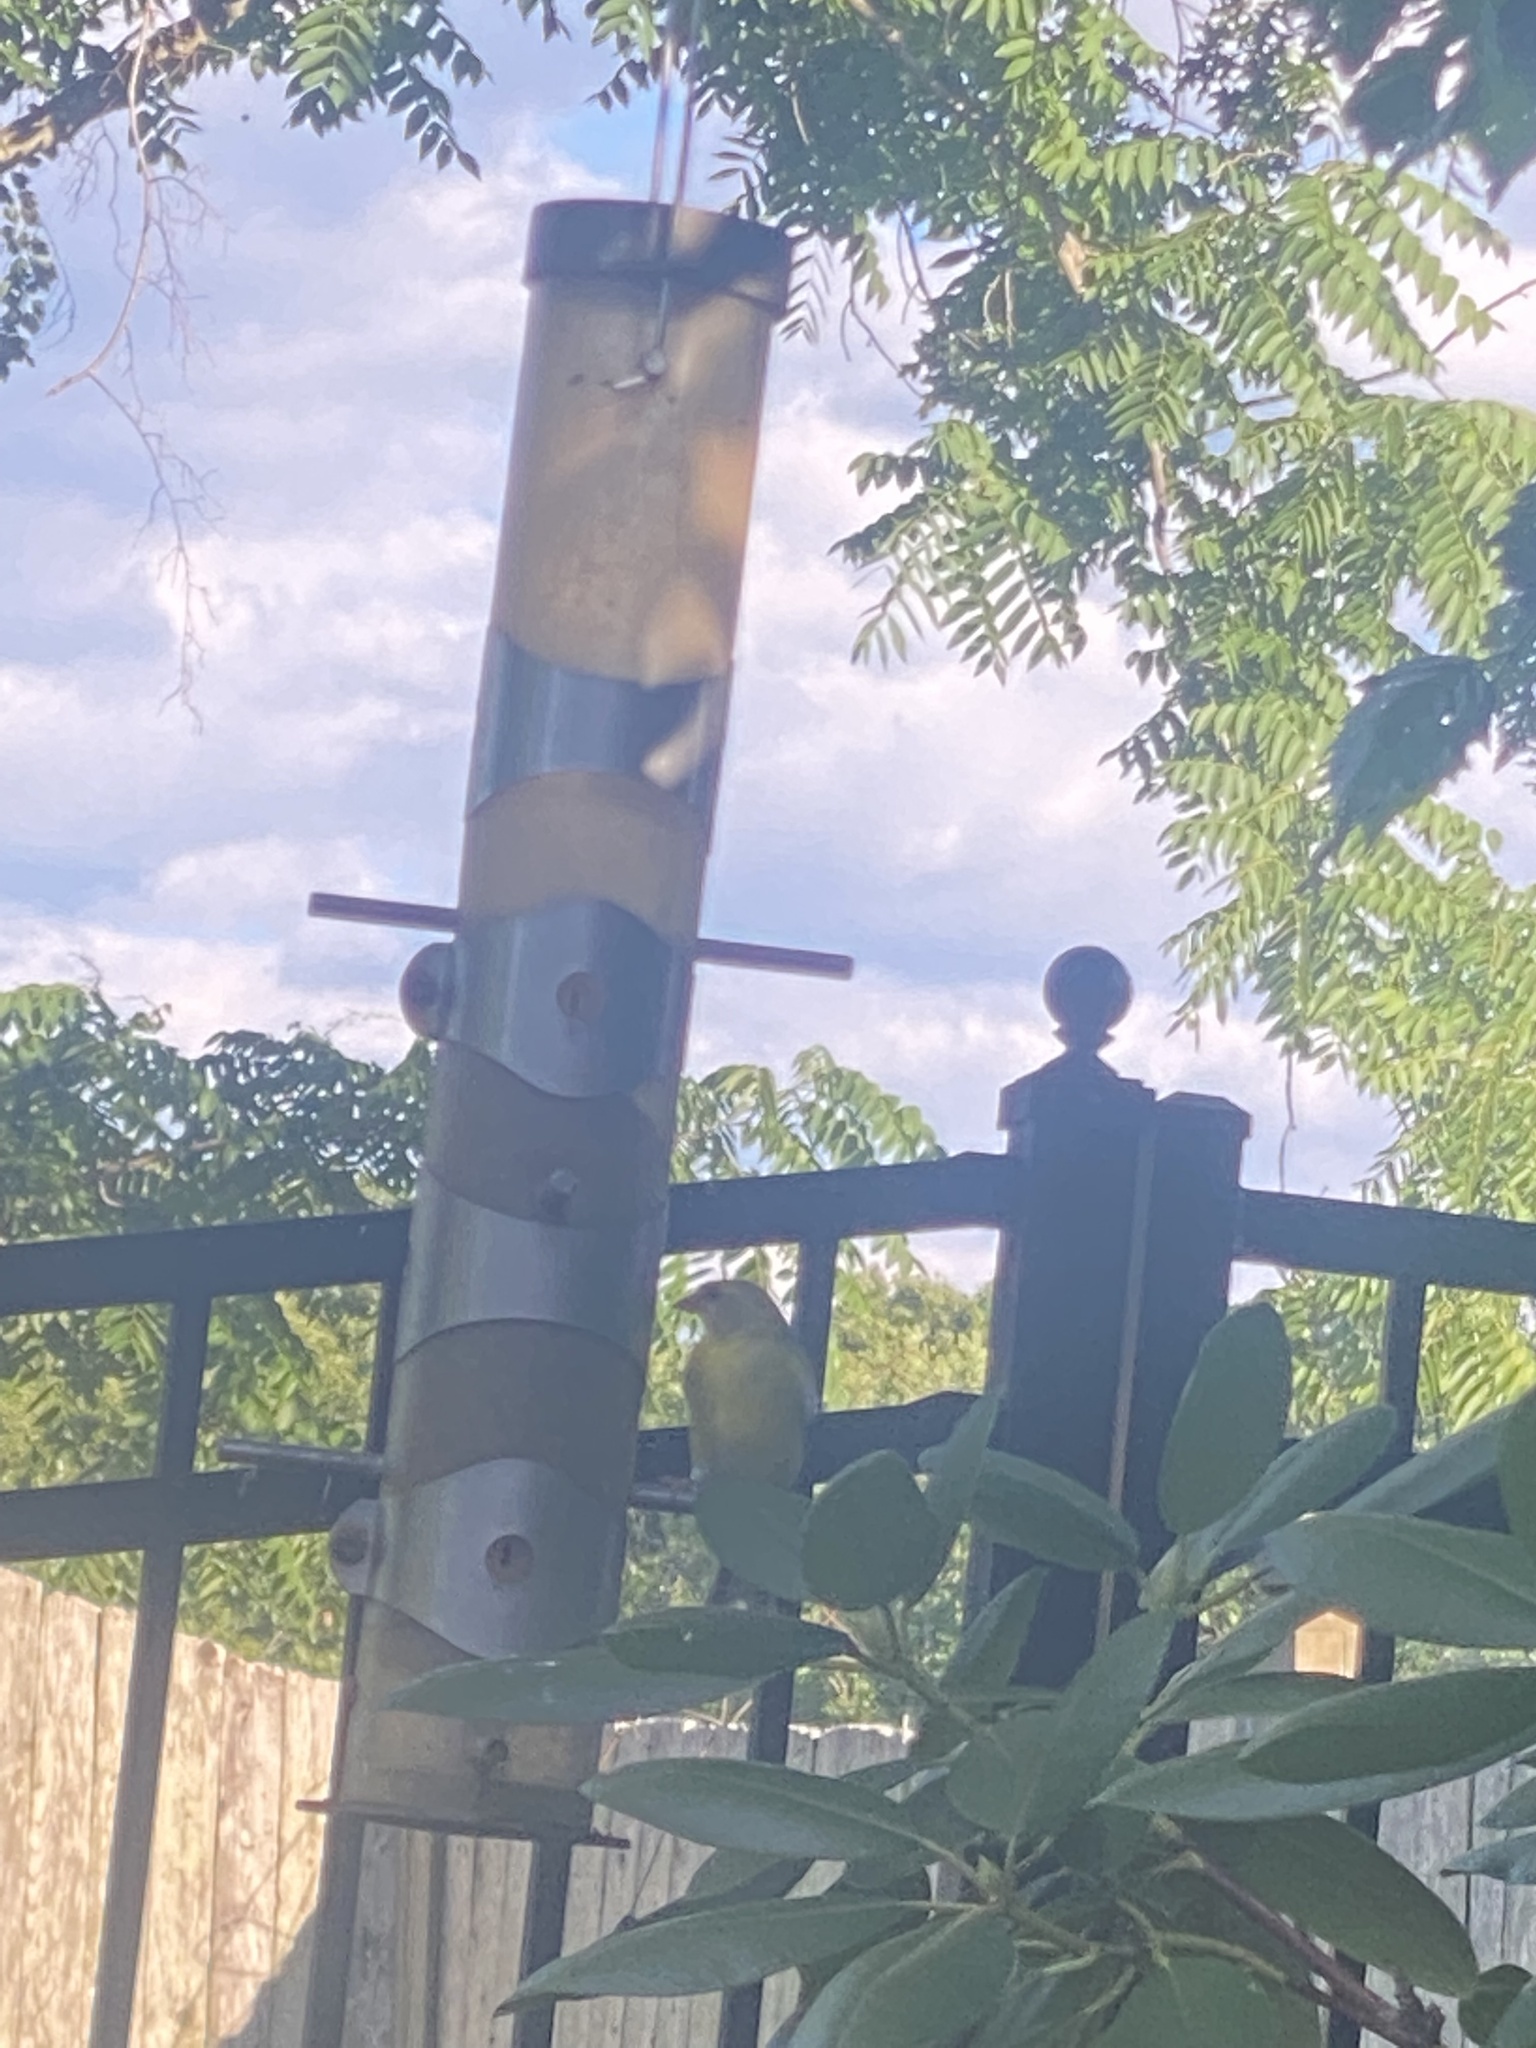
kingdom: Animalia
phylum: Chordata
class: Aves
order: Passeriformes
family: Fringillidae
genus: Spinus
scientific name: Spinus tristis
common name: American goldfinch
